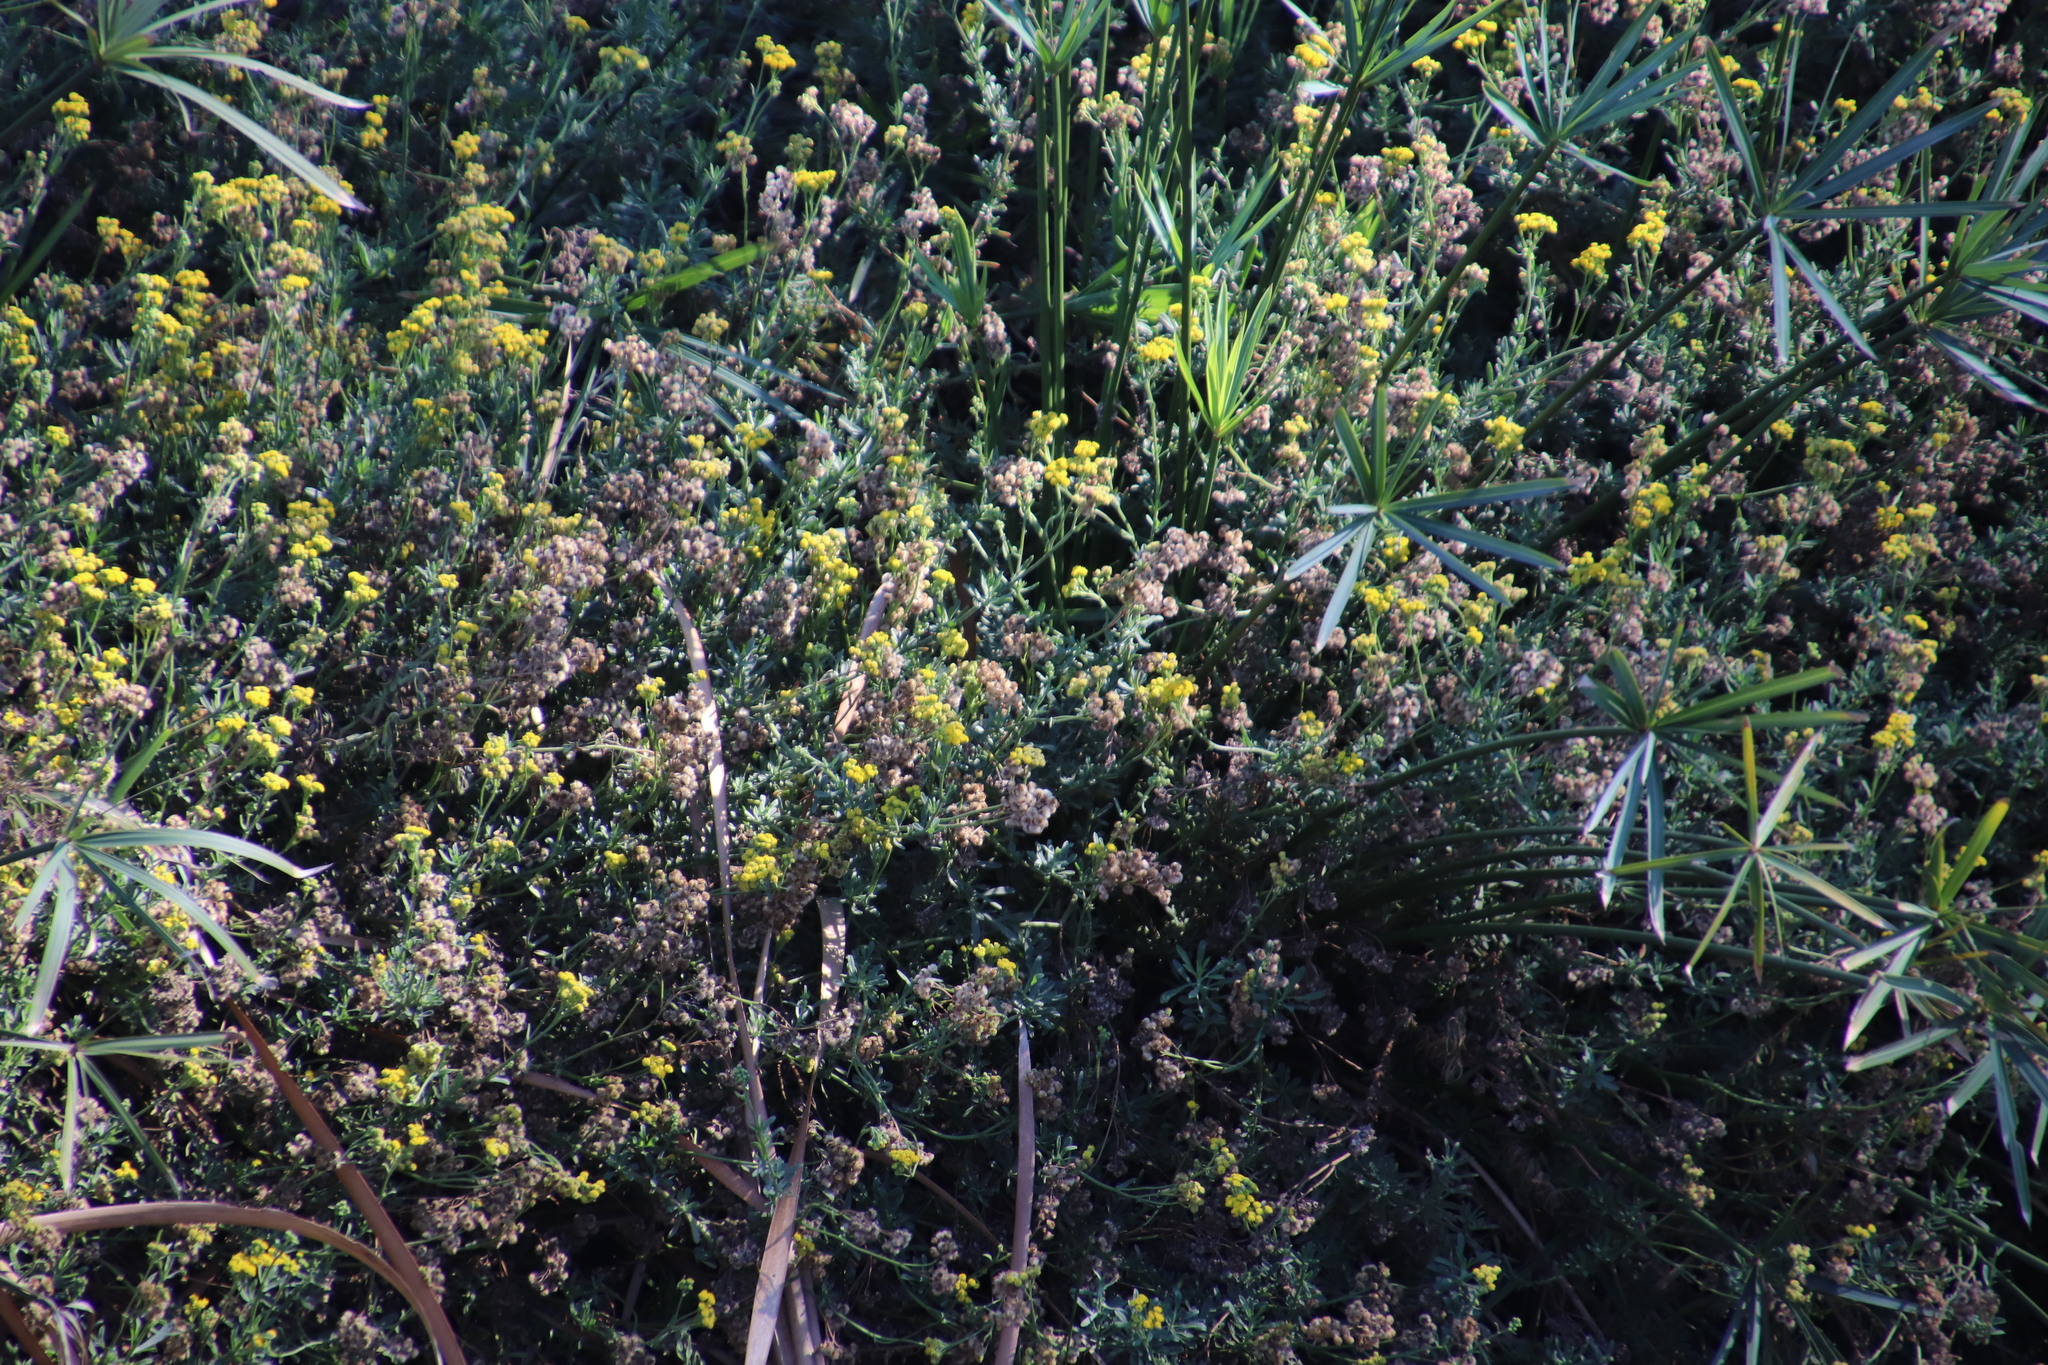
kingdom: Plantae
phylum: Tracheophyta
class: Magnoliopsida
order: Asterales
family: Asteraceae
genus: Nidorella
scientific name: Nidorella foetida
